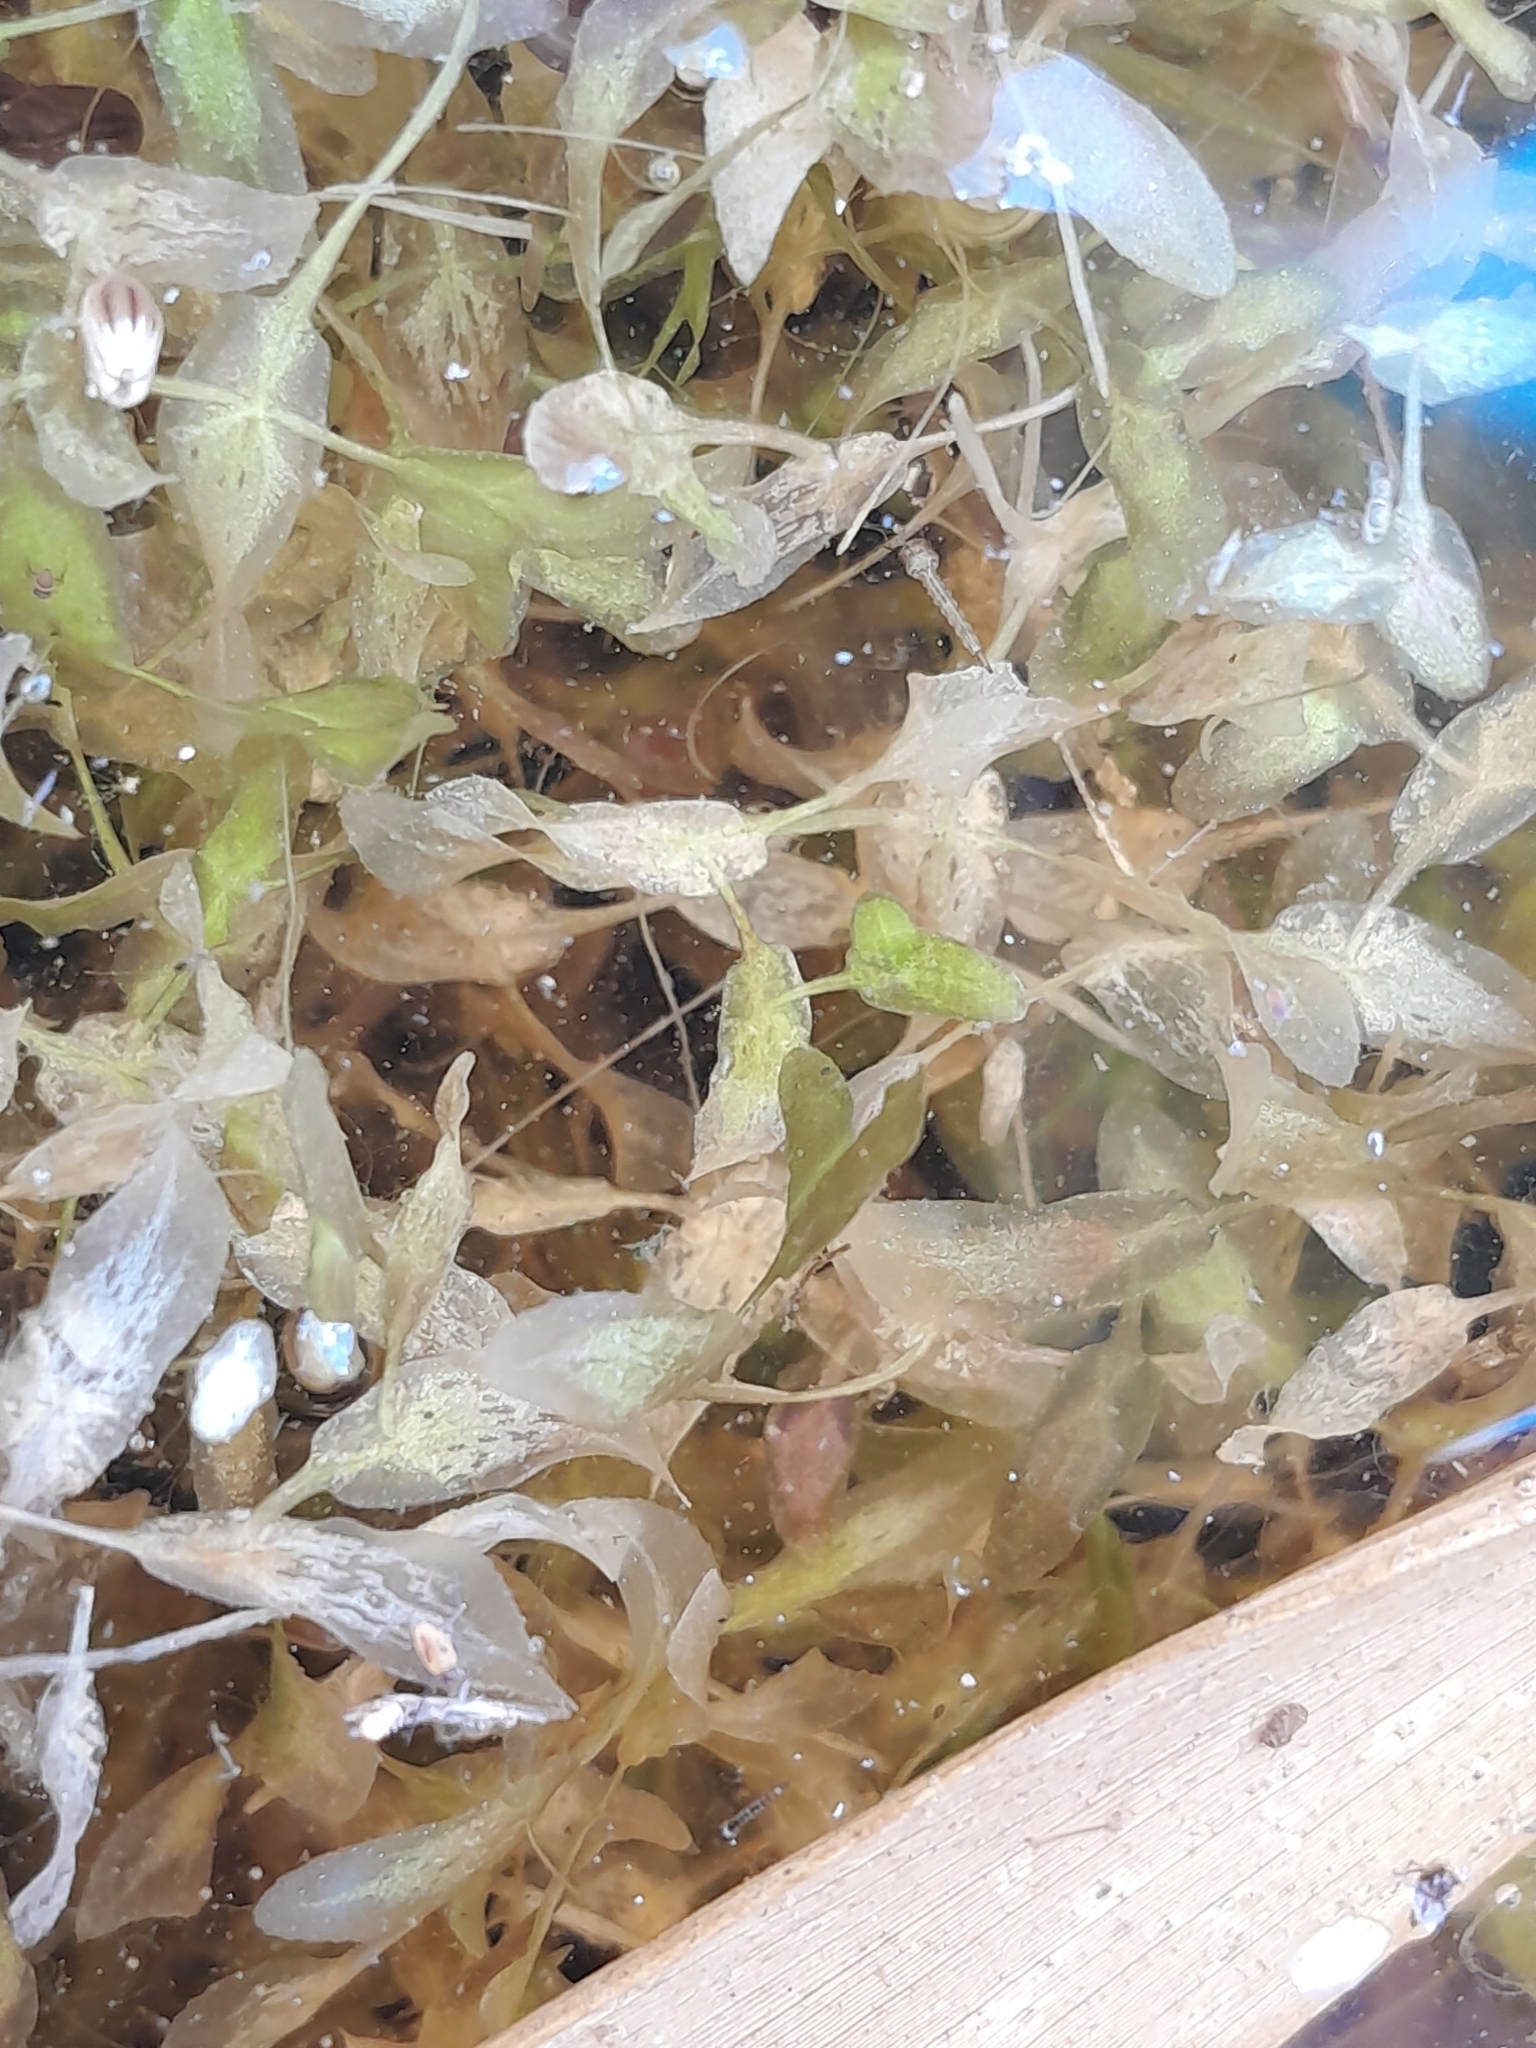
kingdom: Plantae
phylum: Tracheophyta
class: Liliopsida
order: Alismatales
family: Araceae
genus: Lemna
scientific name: Lemna trisulca
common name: Ivy-leaved duckweed
